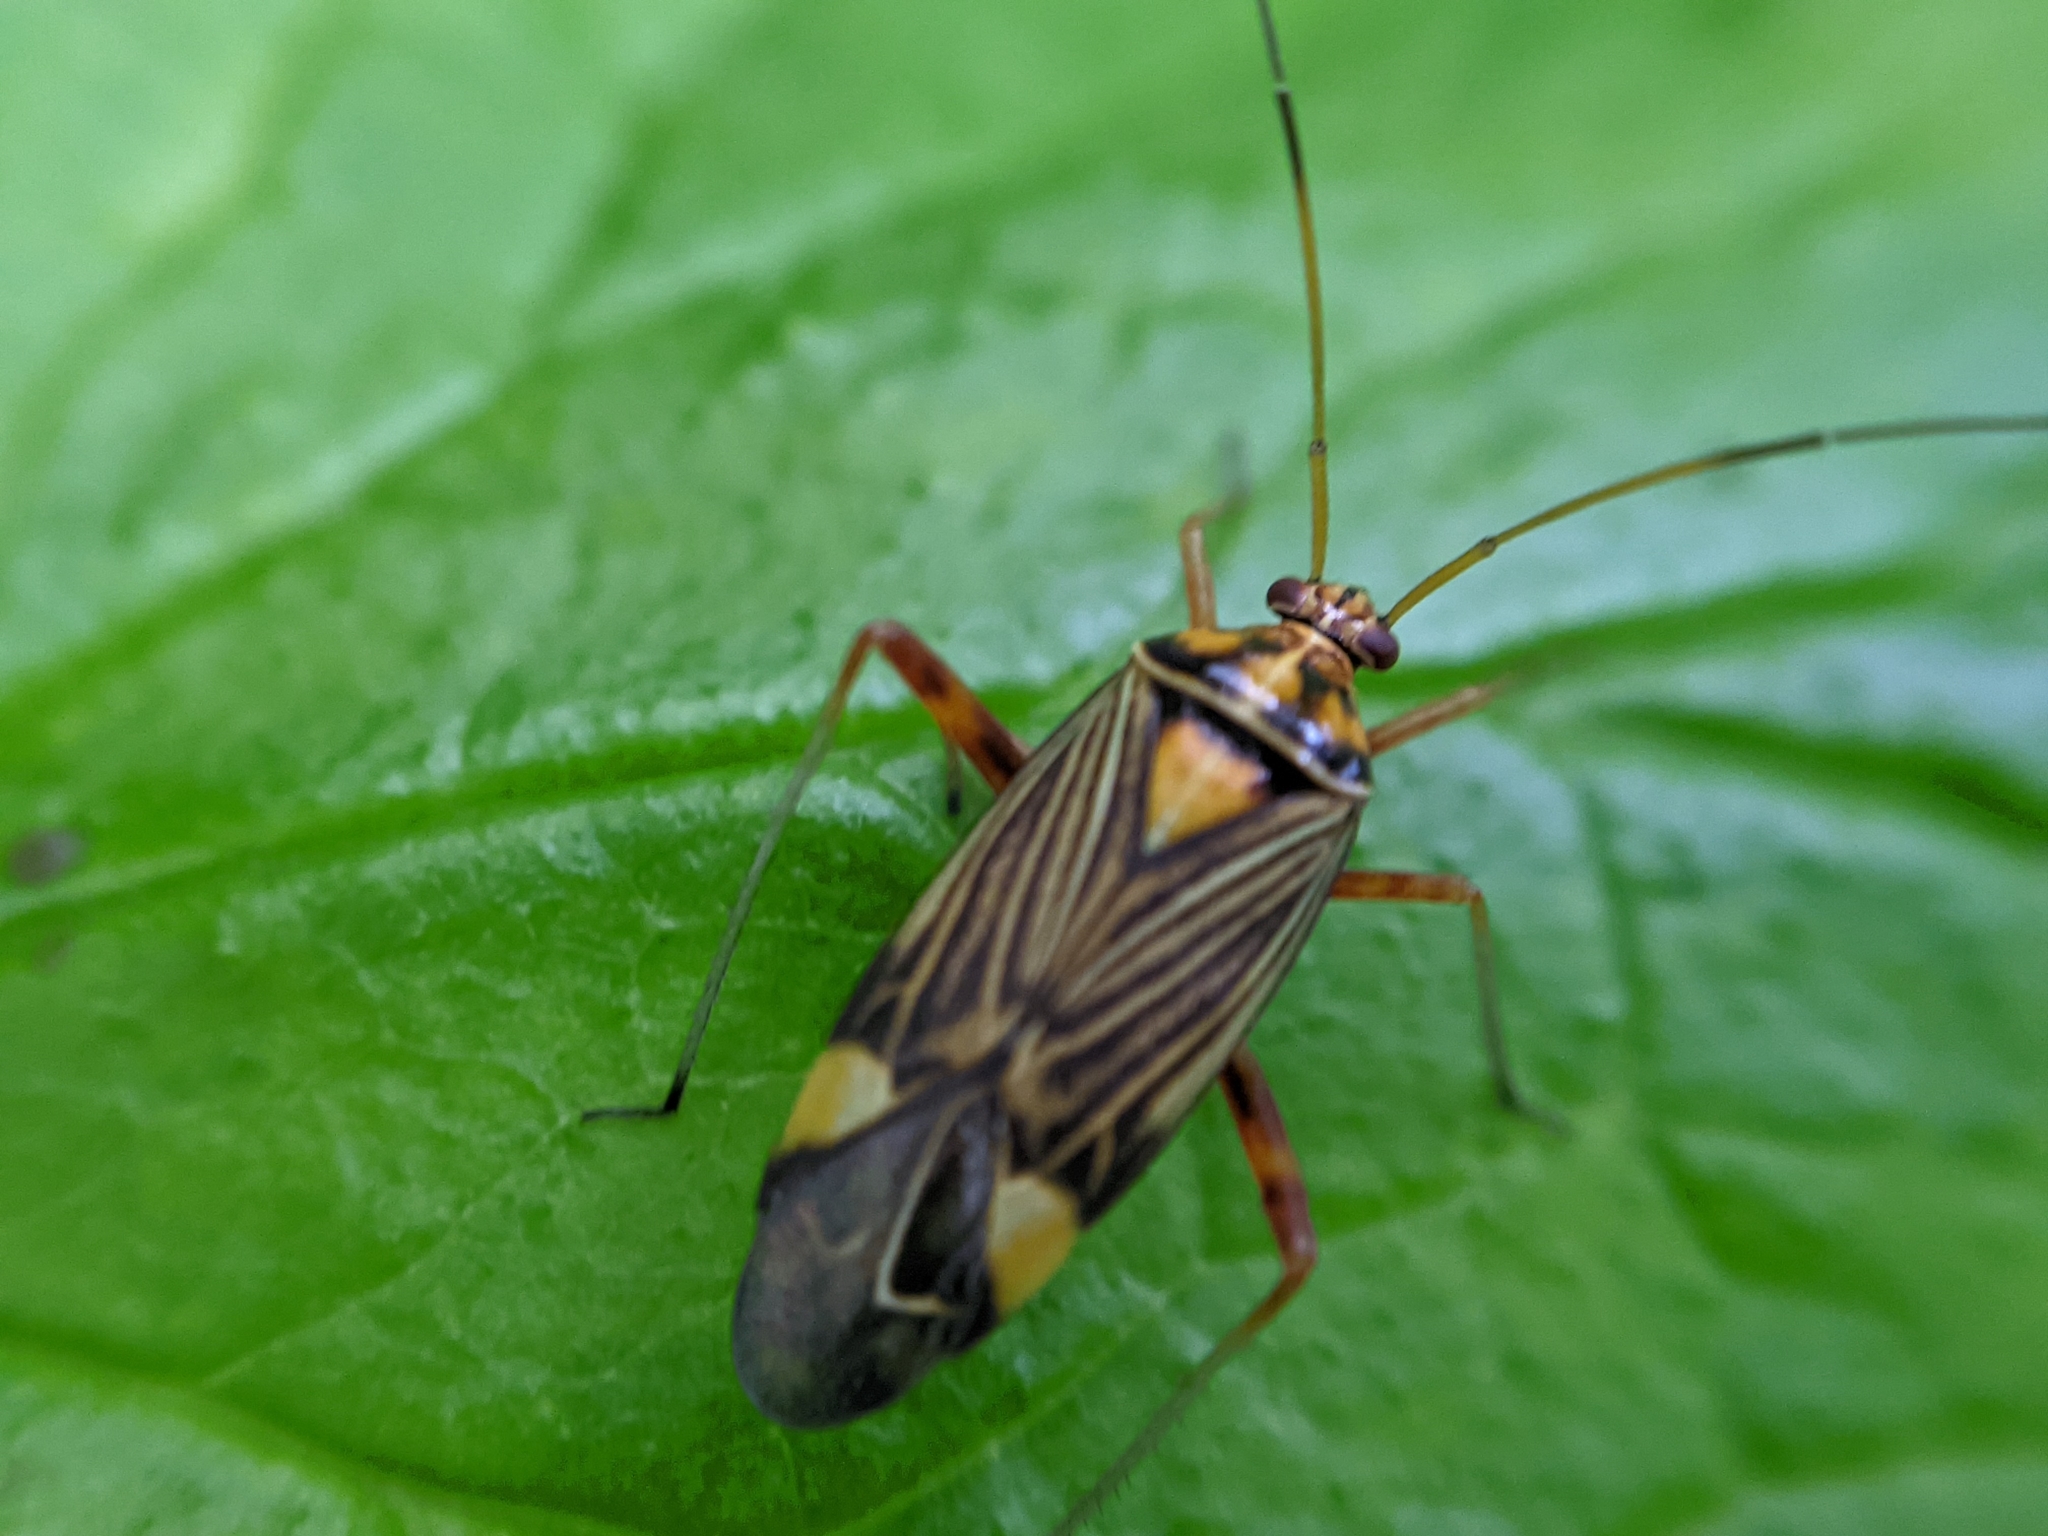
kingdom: Animalia
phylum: Arthropoda
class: Insecta
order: Hemiptera
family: Miridae
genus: Rhabdomiris
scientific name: Rhabdomiris striatellus
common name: Plant bug
